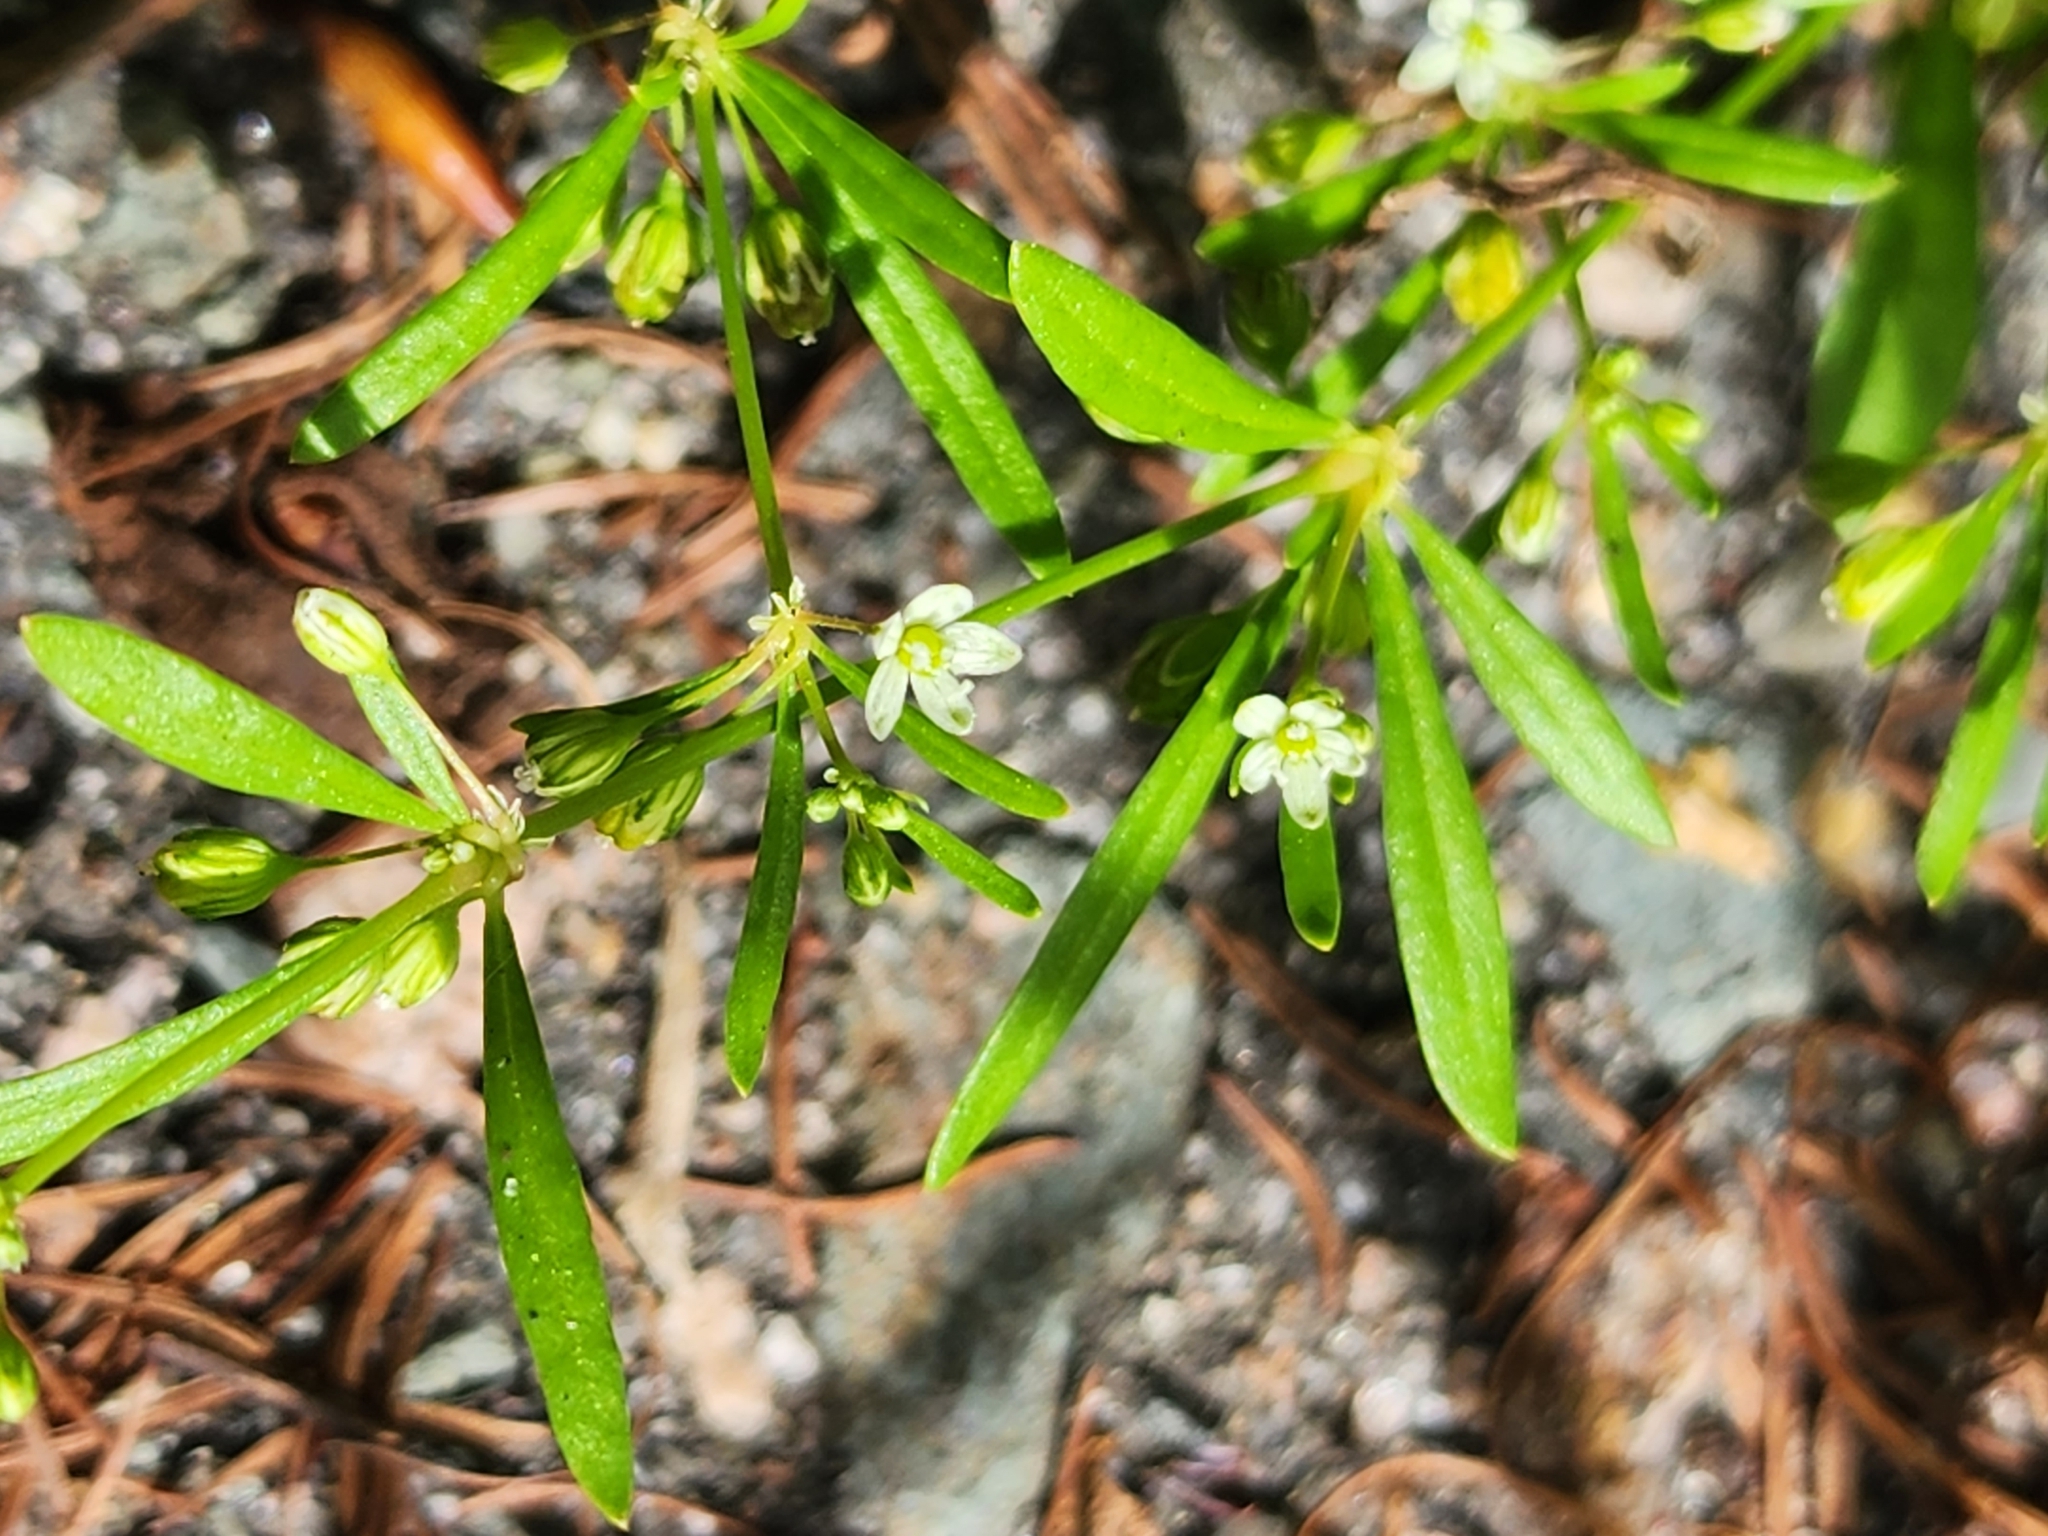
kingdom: Plantae
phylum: Tracheophyta
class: Magnoliopsida
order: Caryophyllales
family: Molluginaceae
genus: Mollugo
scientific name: Mollugo verticillata
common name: Green carpetweed
